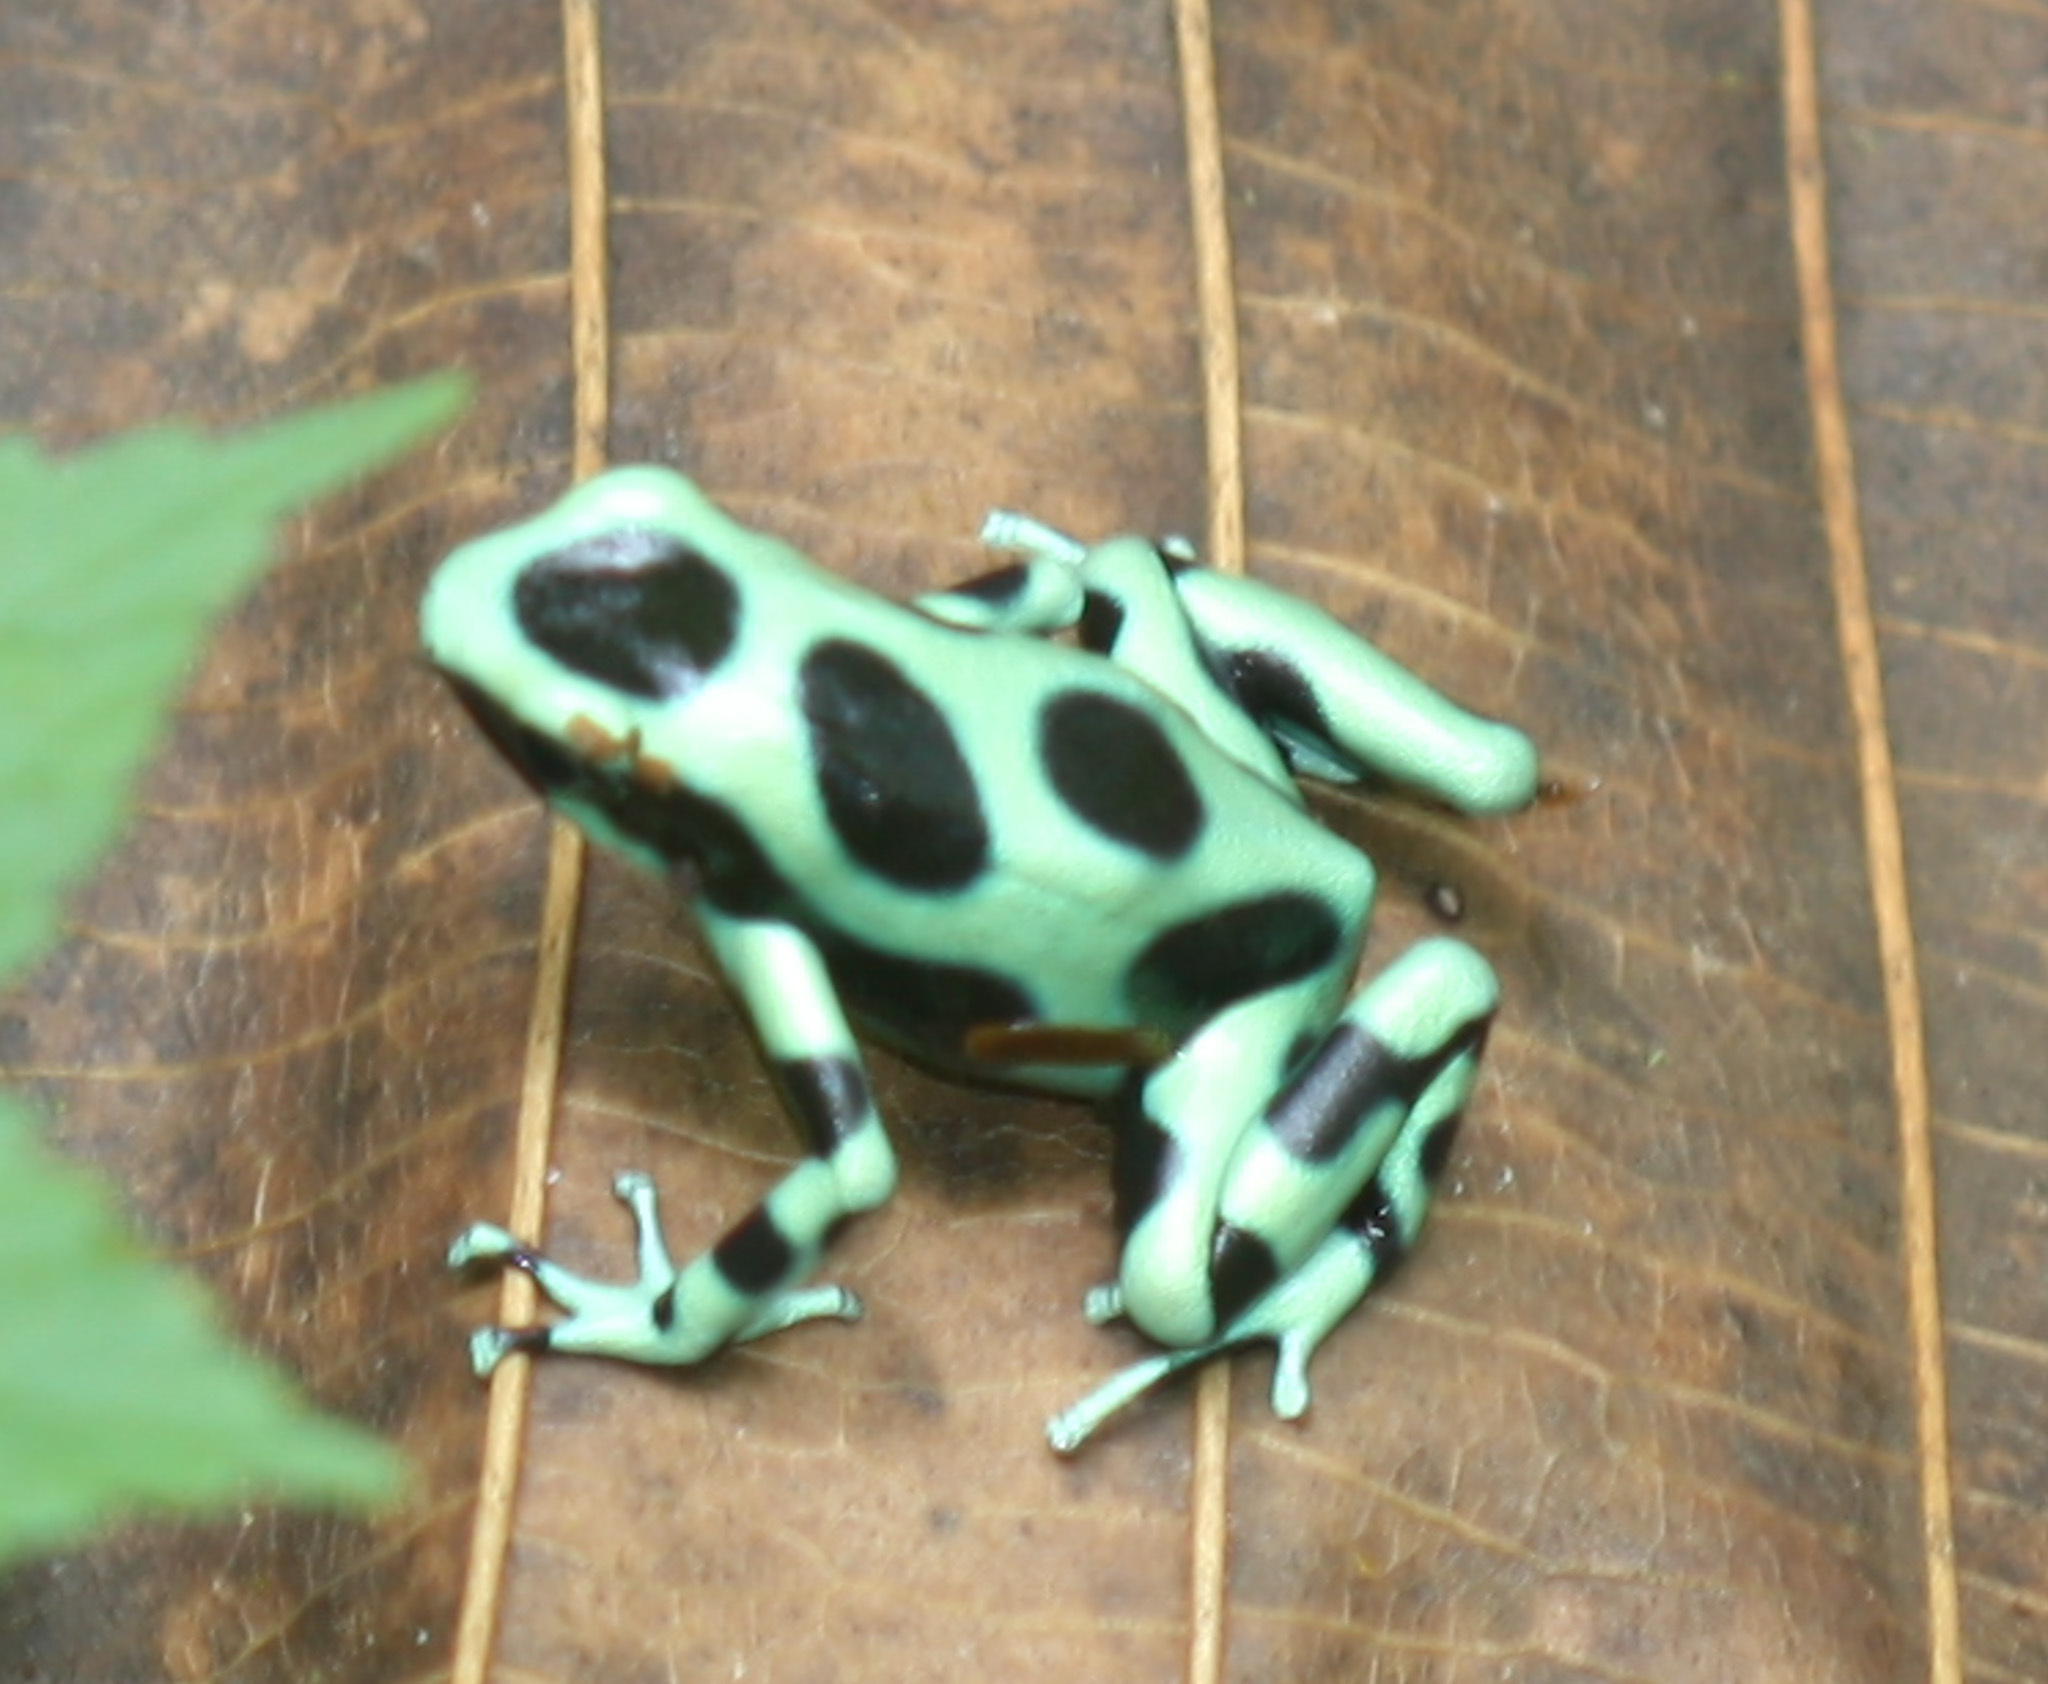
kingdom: Animalia
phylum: Chordata
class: Amphibia
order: Anura
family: Dendrobatidae
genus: Dendrobates
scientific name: Dendrobates auratus
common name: Green and black poison dart frog
